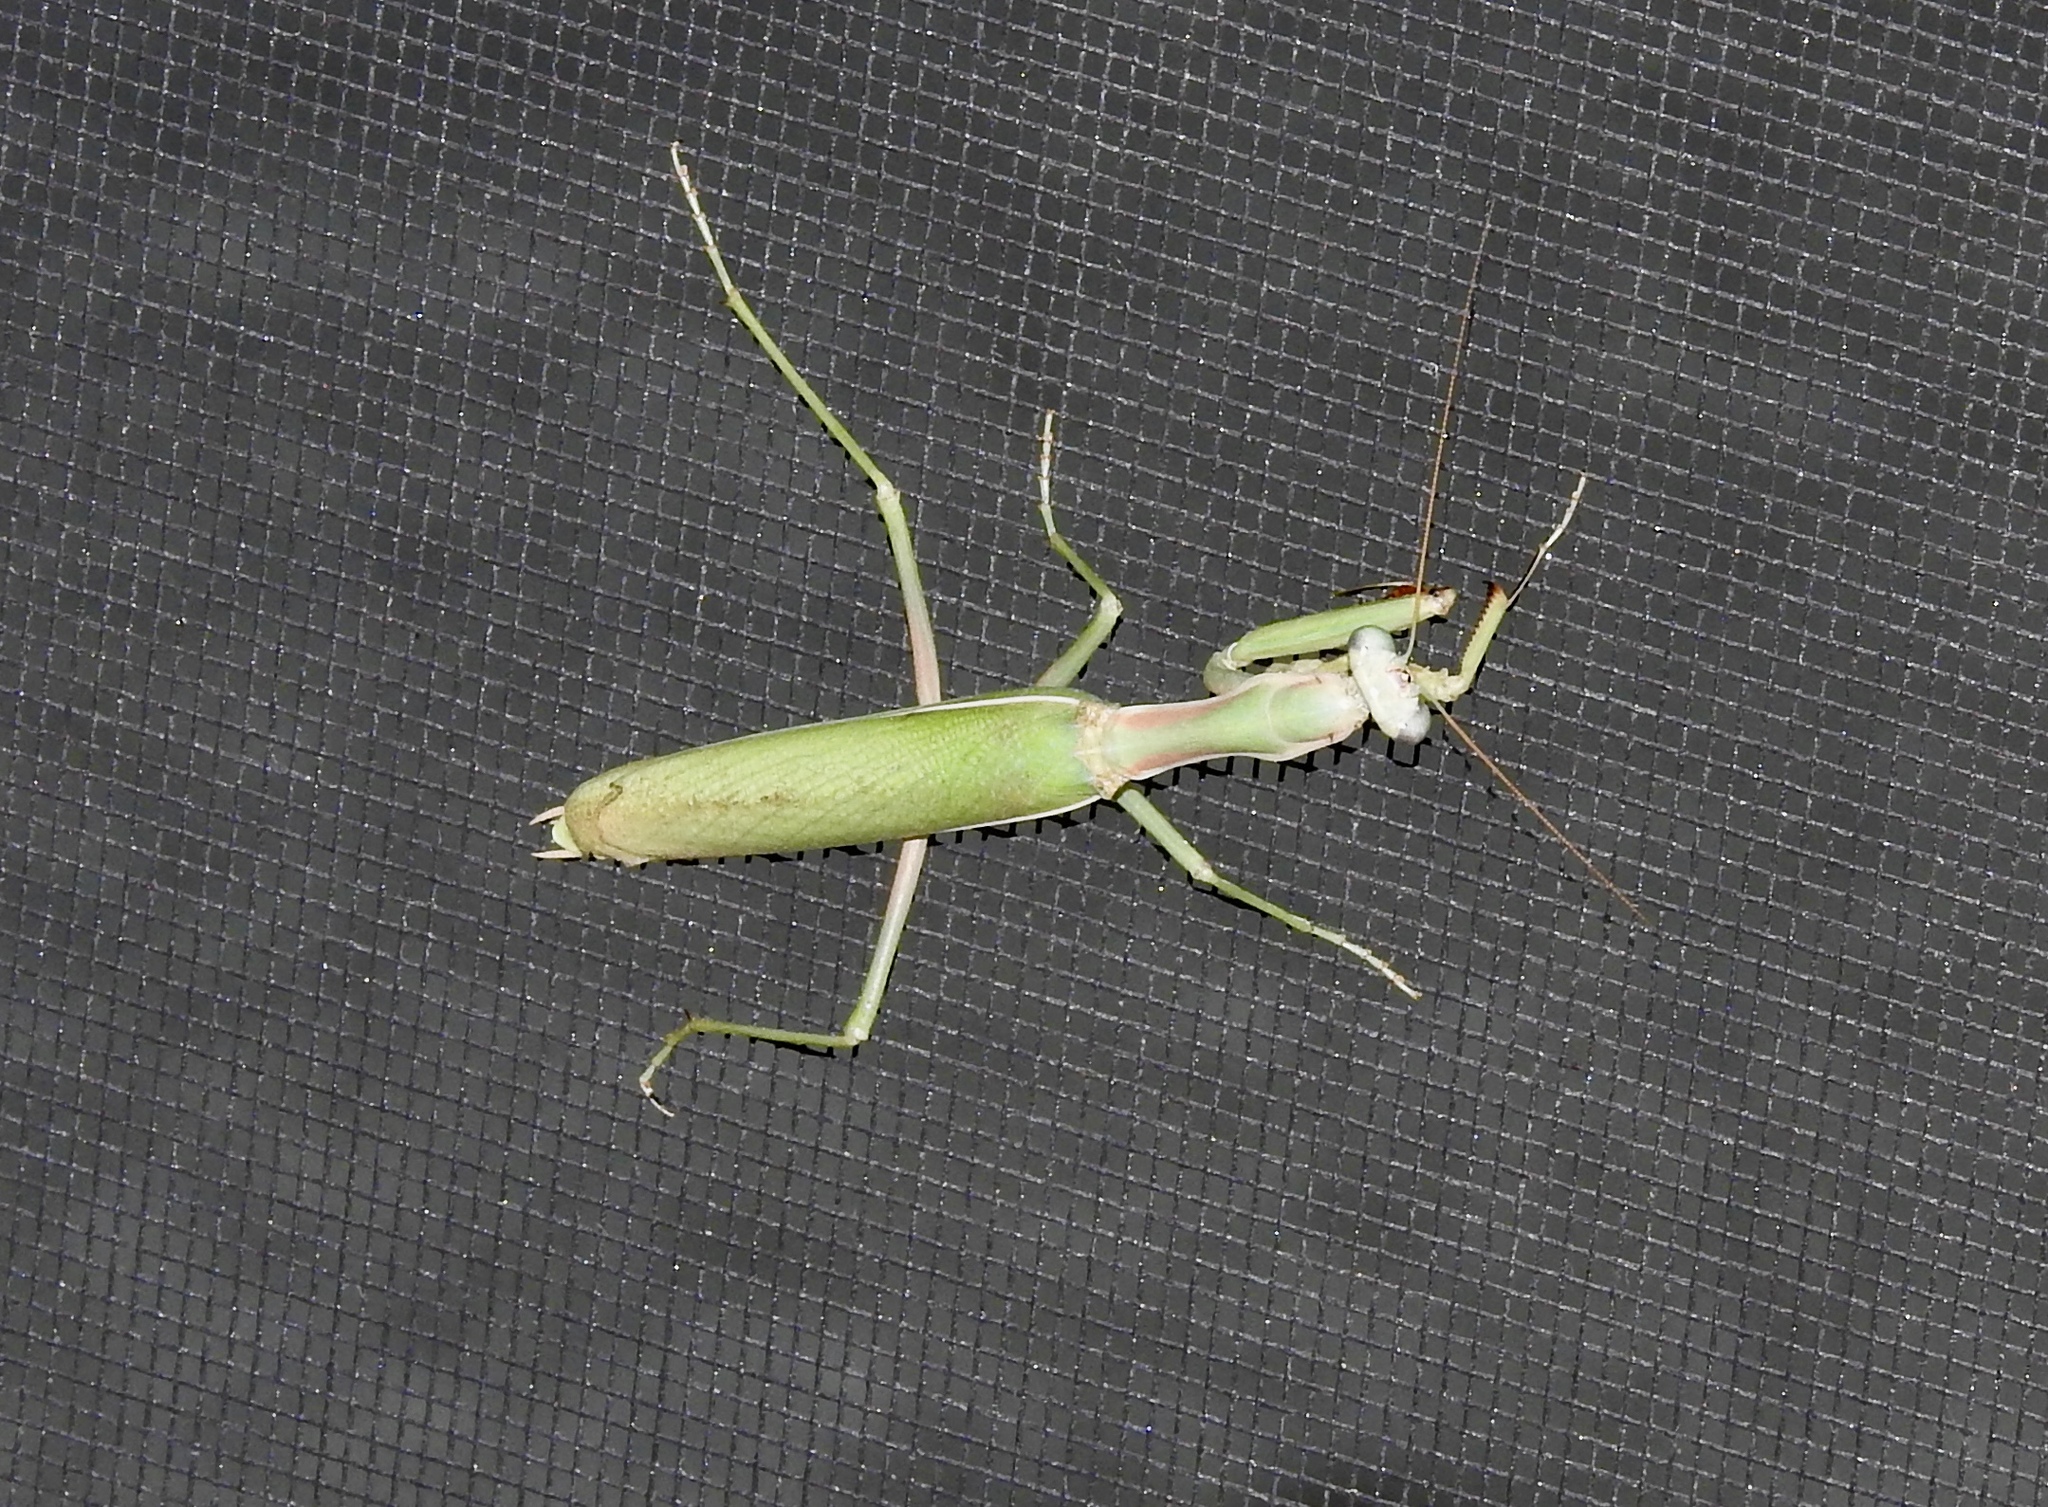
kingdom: Animalia
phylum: Arthropoda
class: Insecta
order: Mantodea
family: Eremiaphilidae
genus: Iris
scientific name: Iris oratoria
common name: Mediterranean mantis
